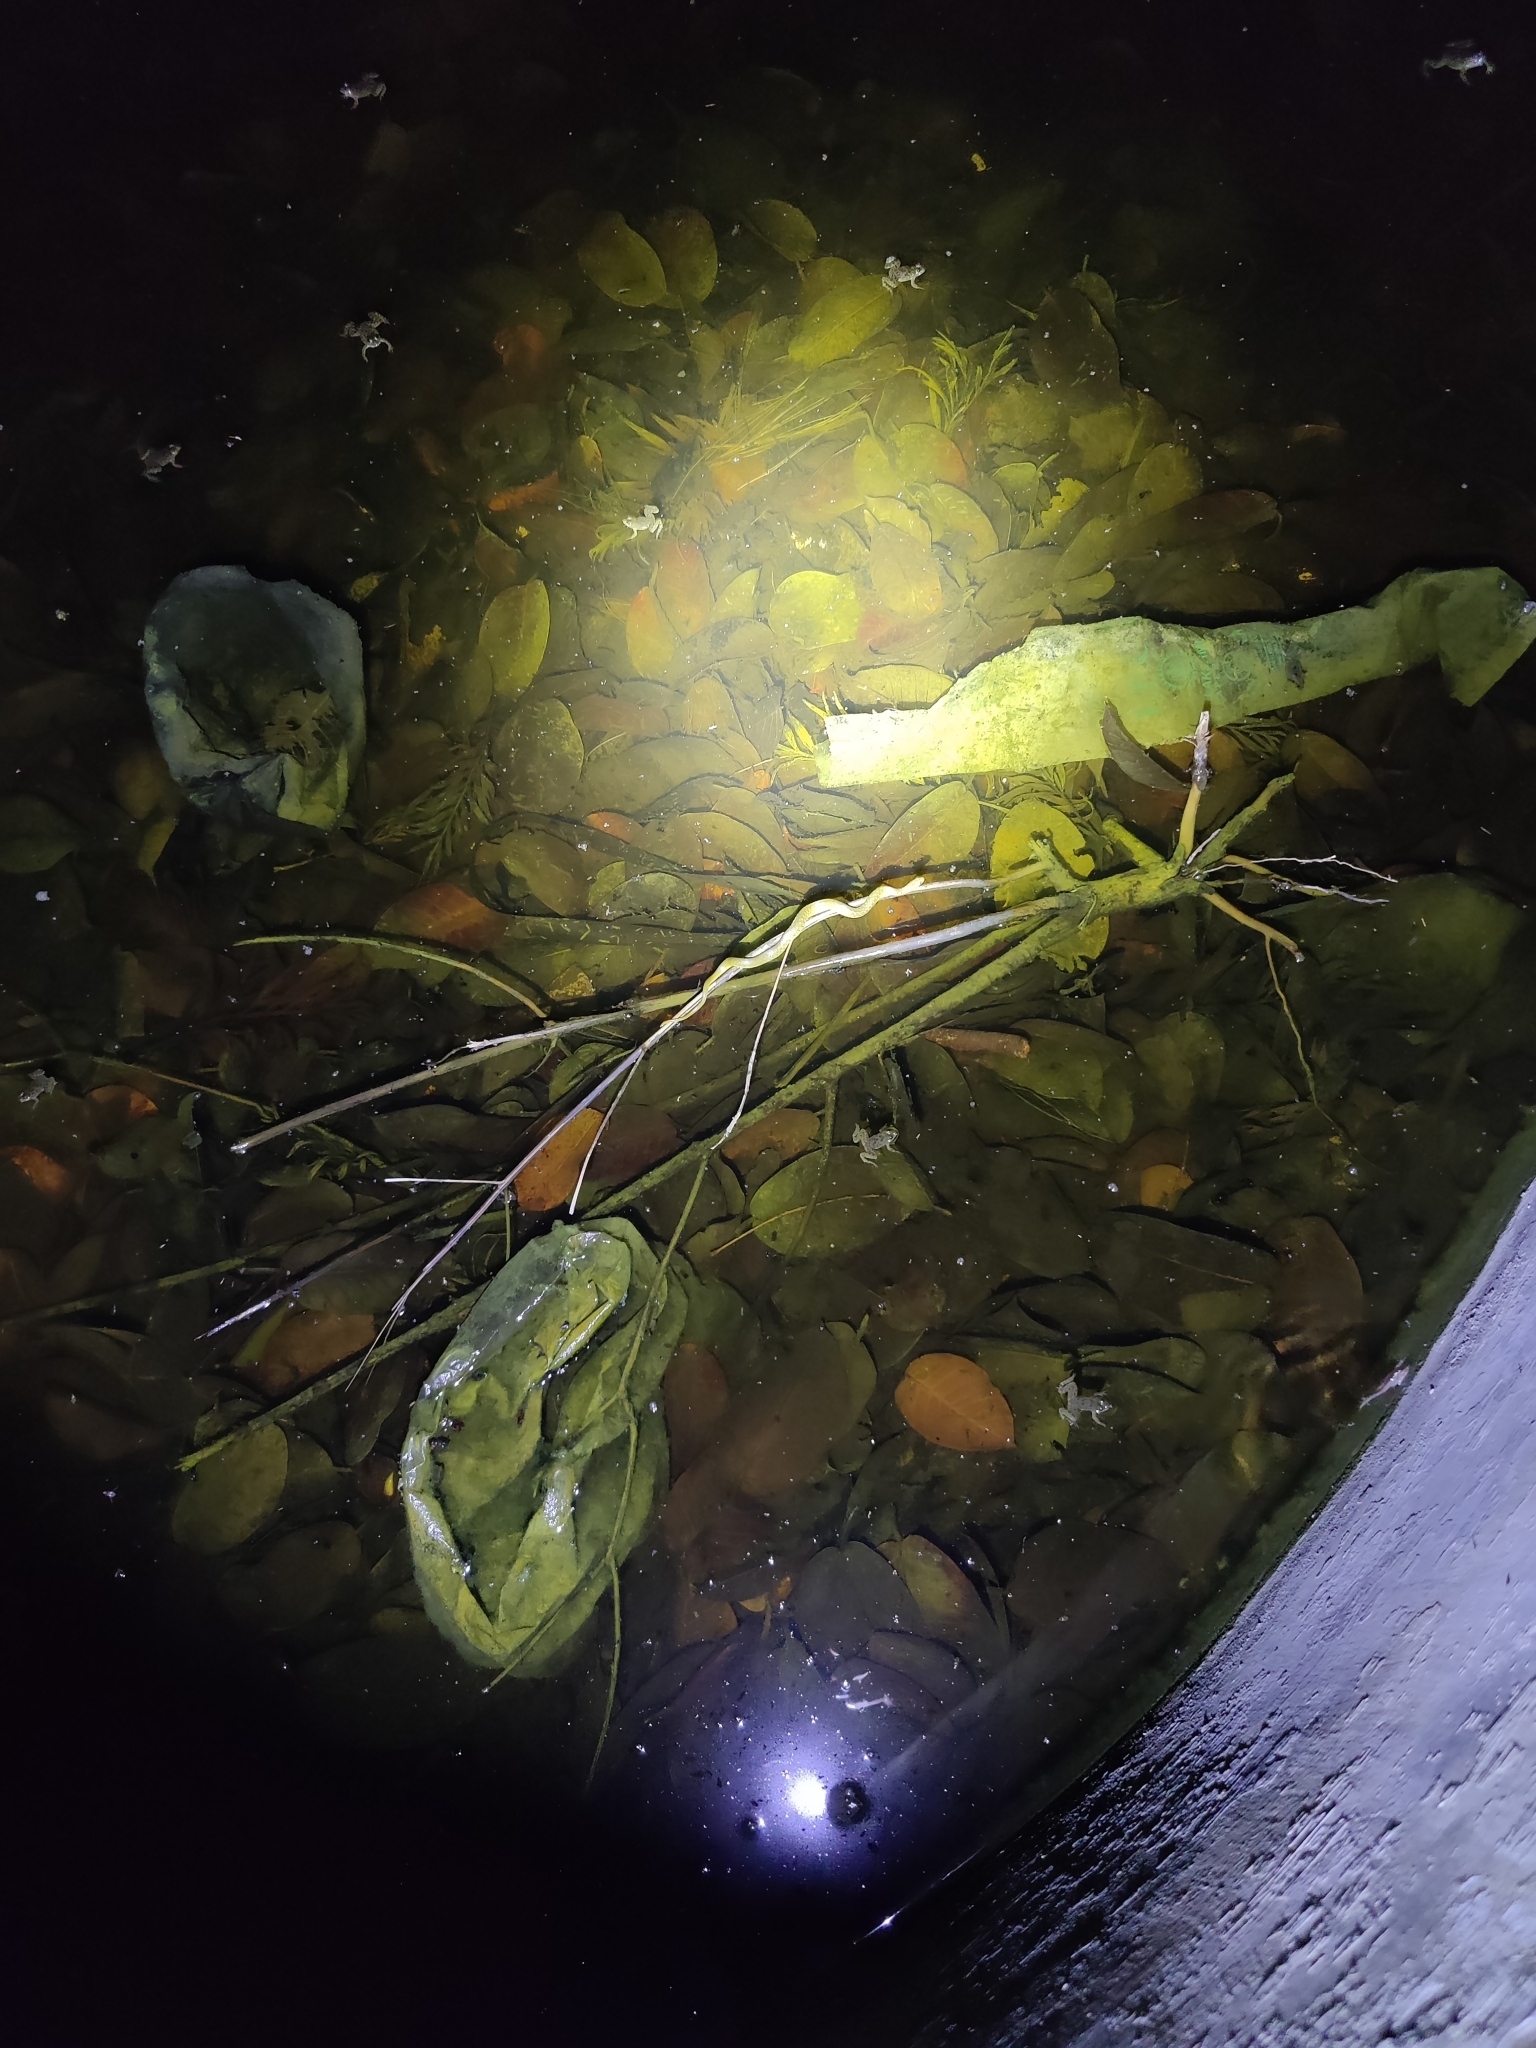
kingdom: Animalia
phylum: Chordata
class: Squamata
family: Colubridae
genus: Fowlea
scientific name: Fowlea piscator
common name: Asiatic water snake
